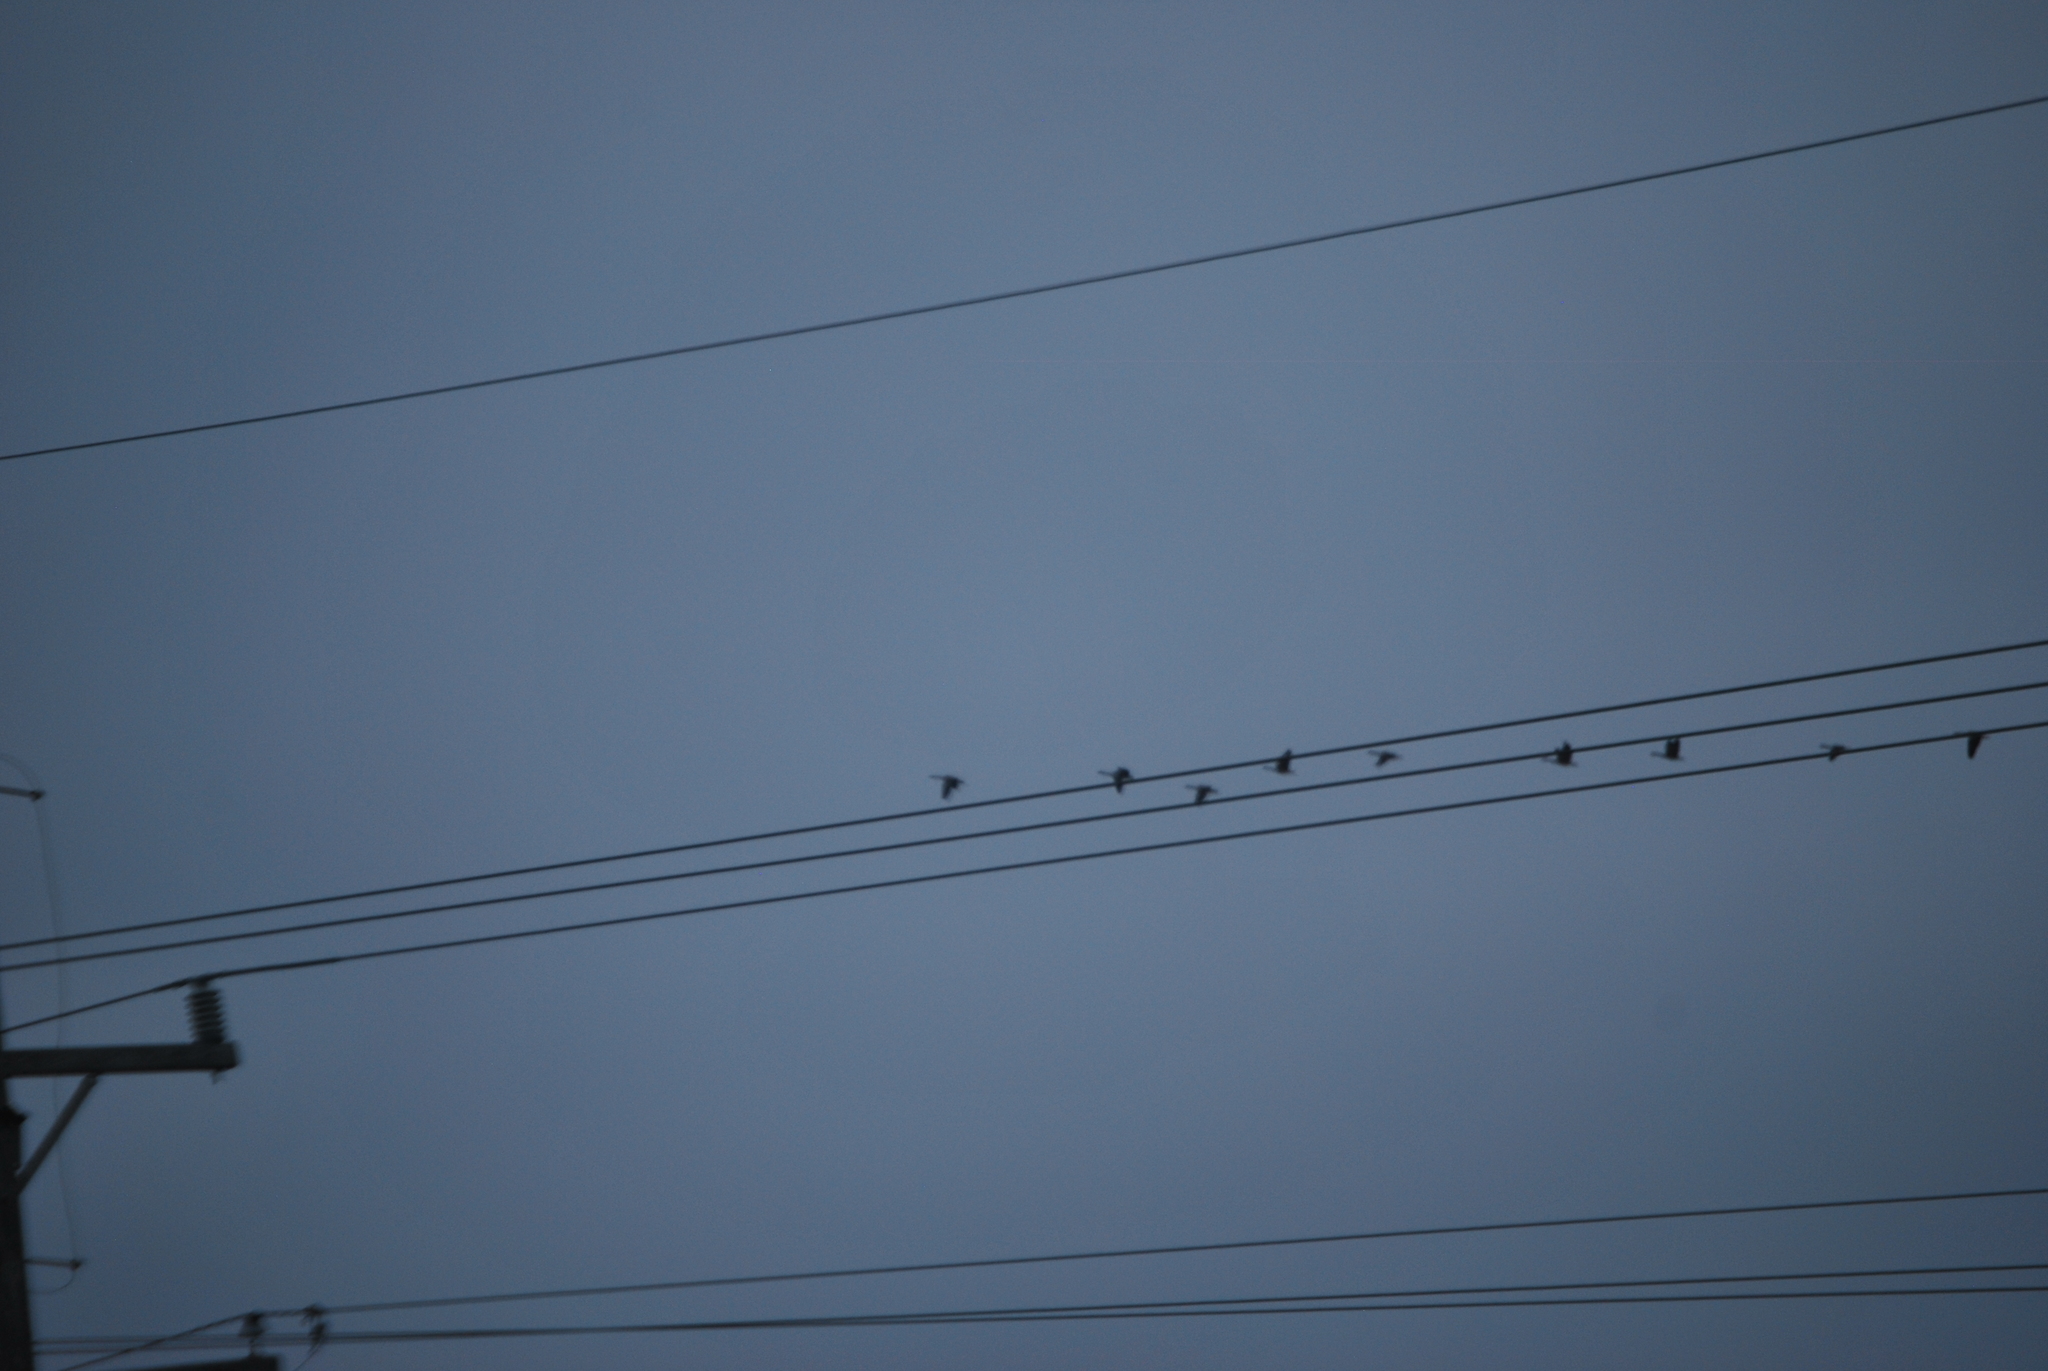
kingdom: Animalia
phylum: Chordata
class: Aves
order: Anseriformes
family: Anatidae
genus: Branta
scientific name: Branta canadensis
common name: Canada goose
